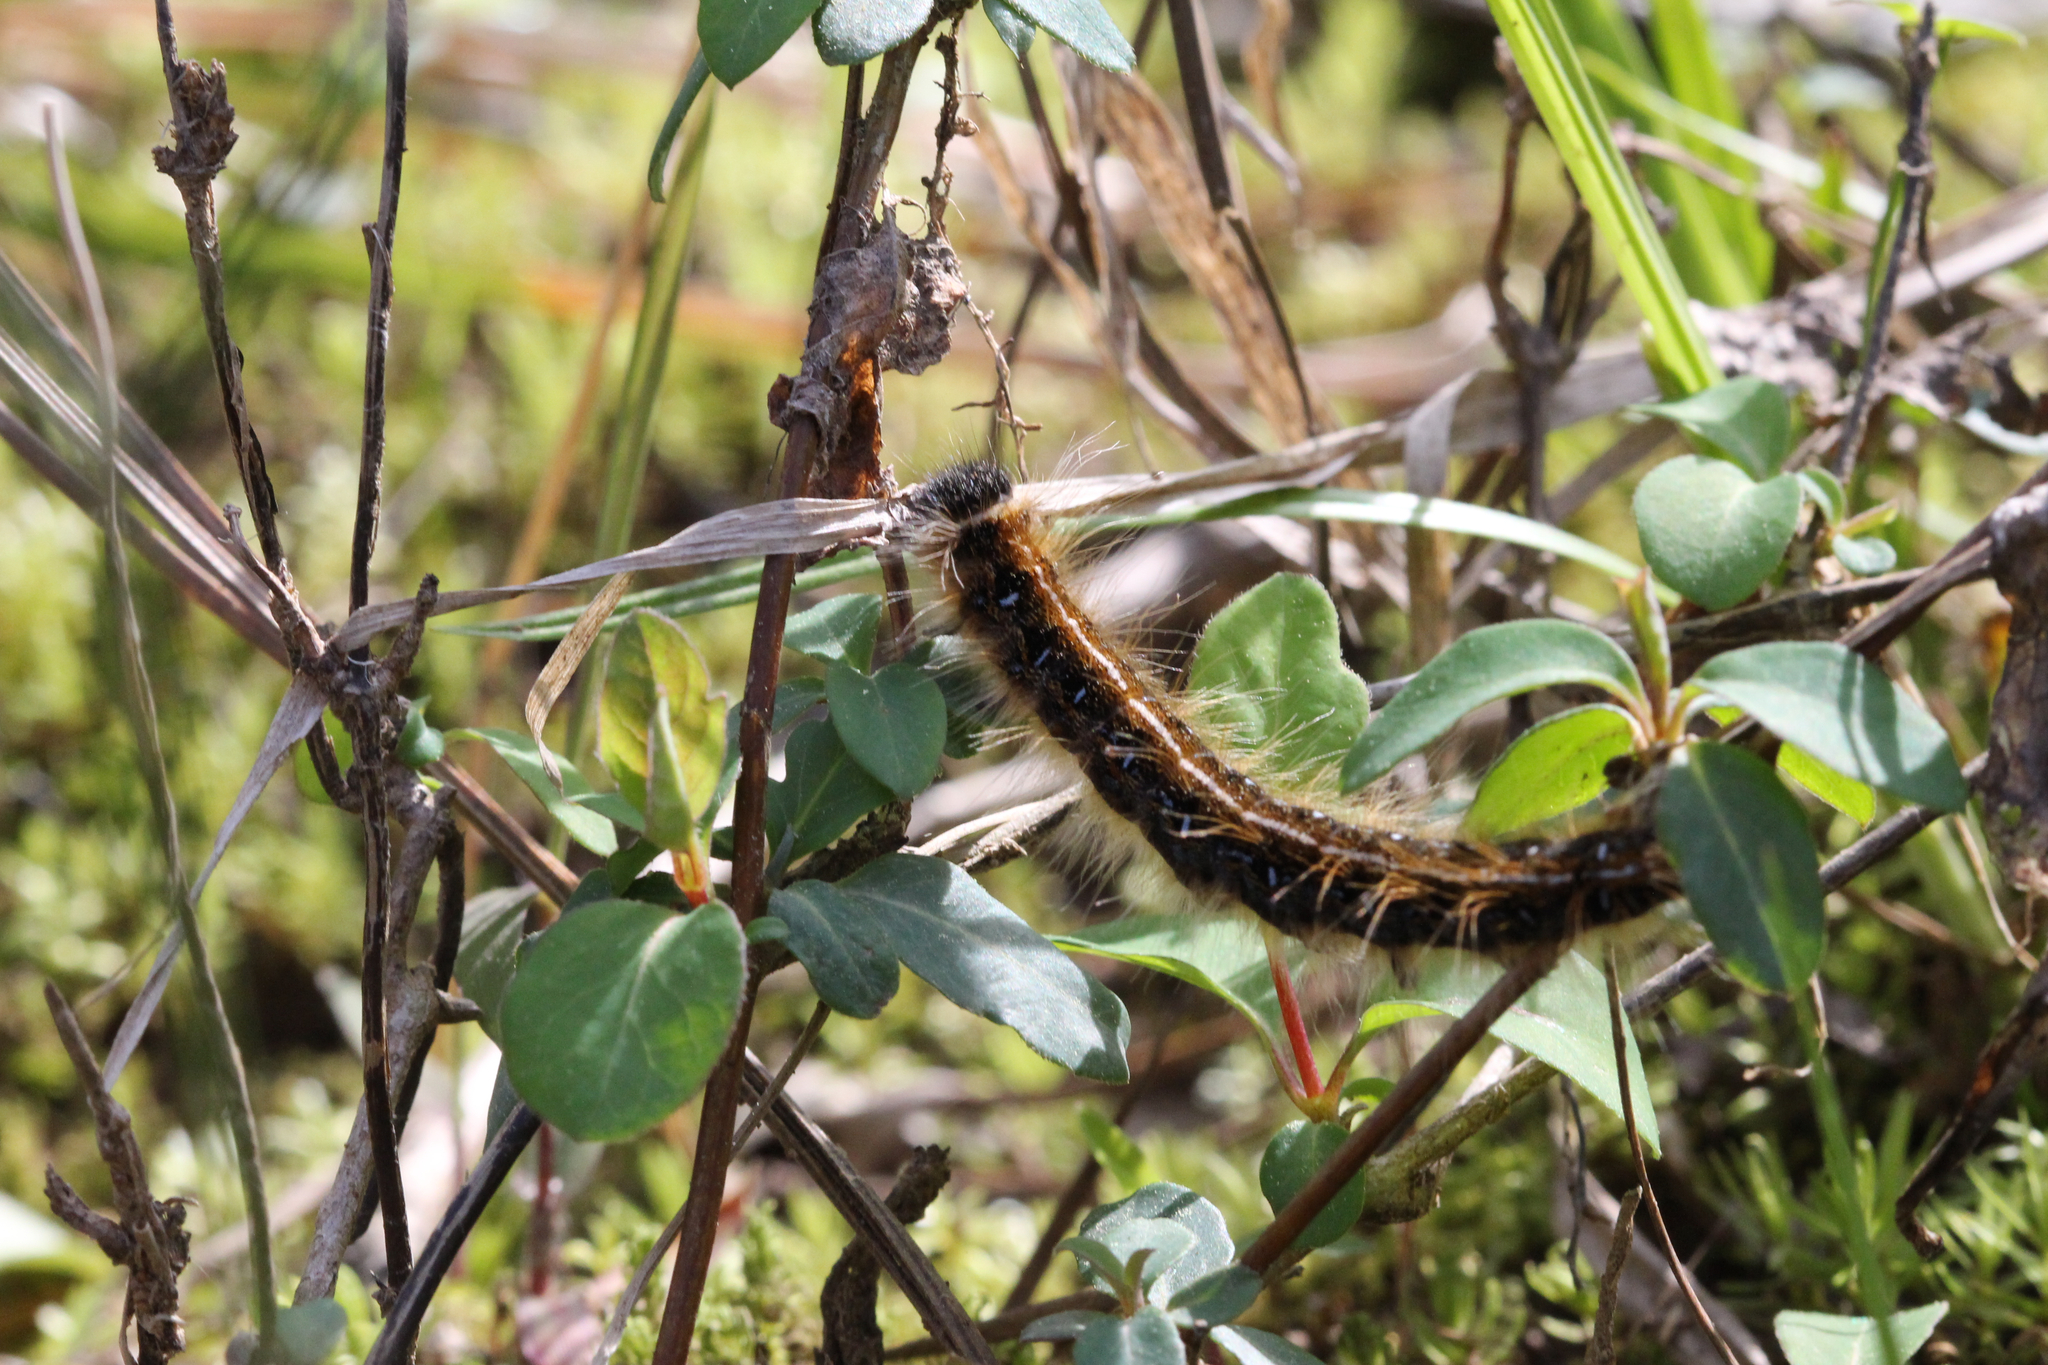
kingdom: Animalia
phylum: Arthropoda
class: Insecta
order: Lepidoptera
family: Lasiocampidae
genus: Malacosoma
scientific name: Malacosoma americana
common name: Eastern tent caterpillar moth
